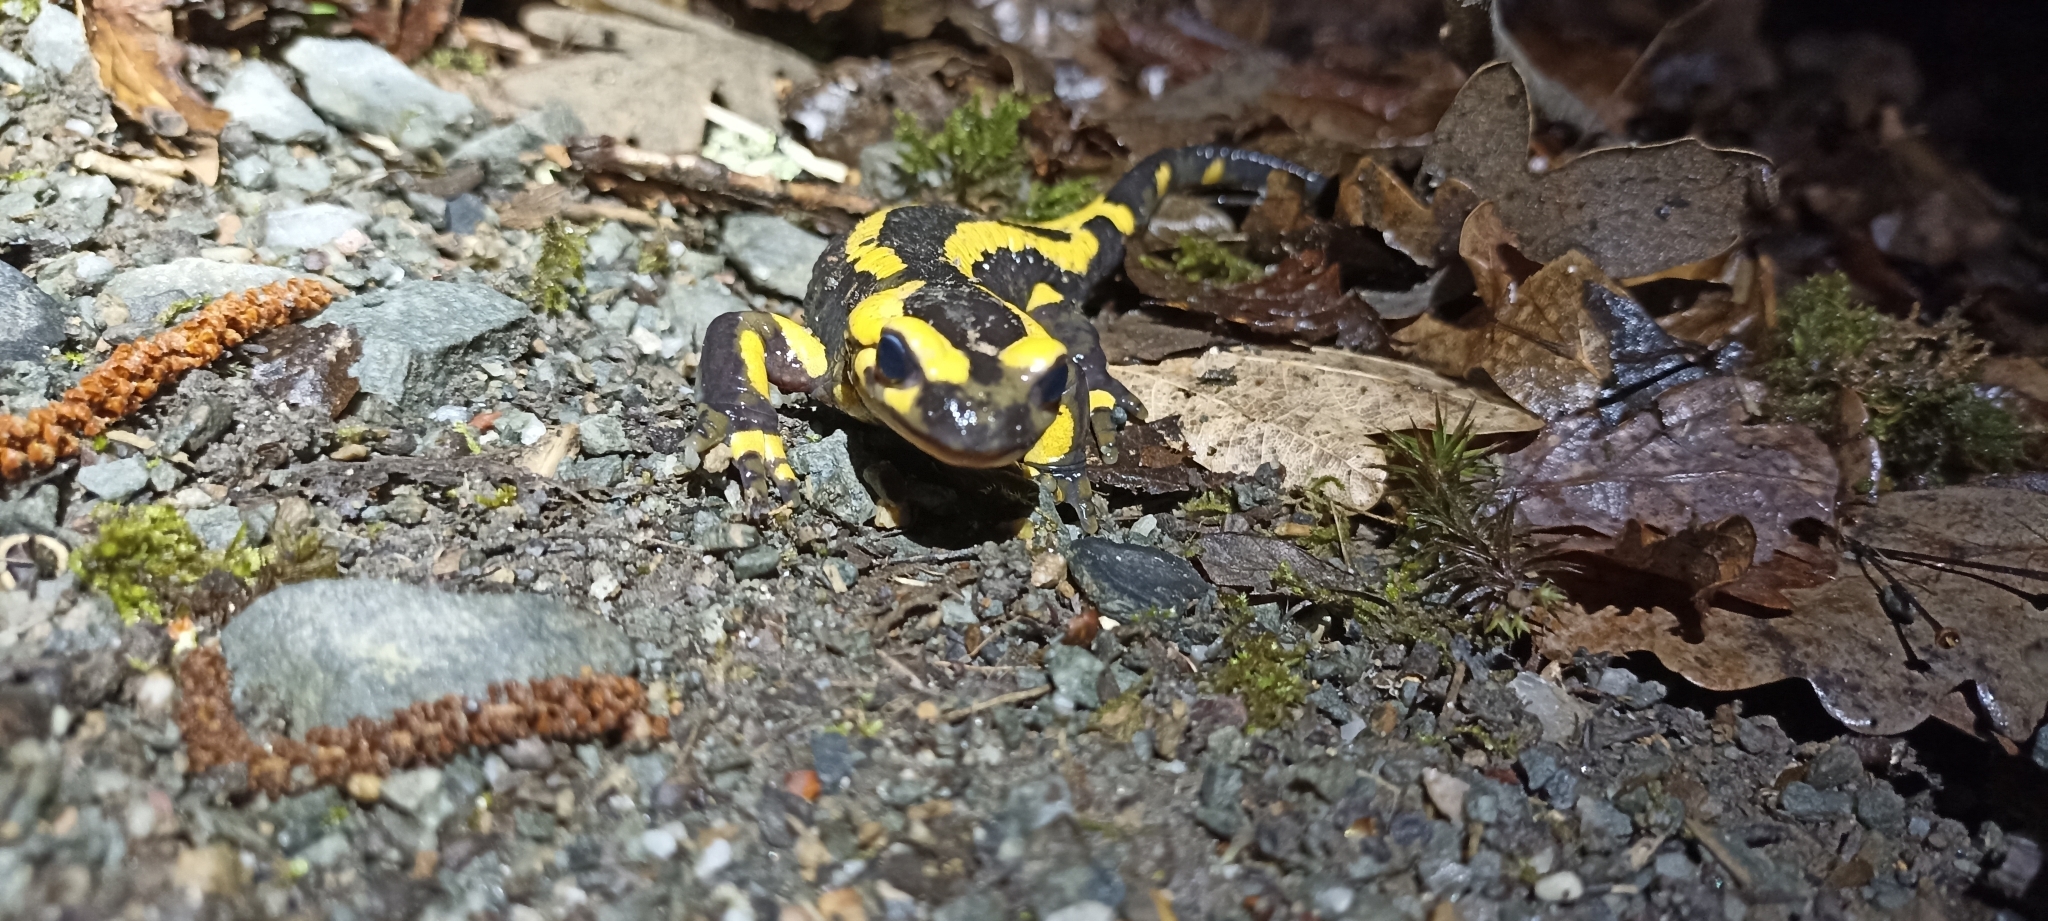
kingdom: Animalia
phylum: Chordata
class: Amphibia
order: Caudata
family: Salamandridae
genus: Salamandra
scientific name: Salamandra salamandra
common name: Fire salamander
